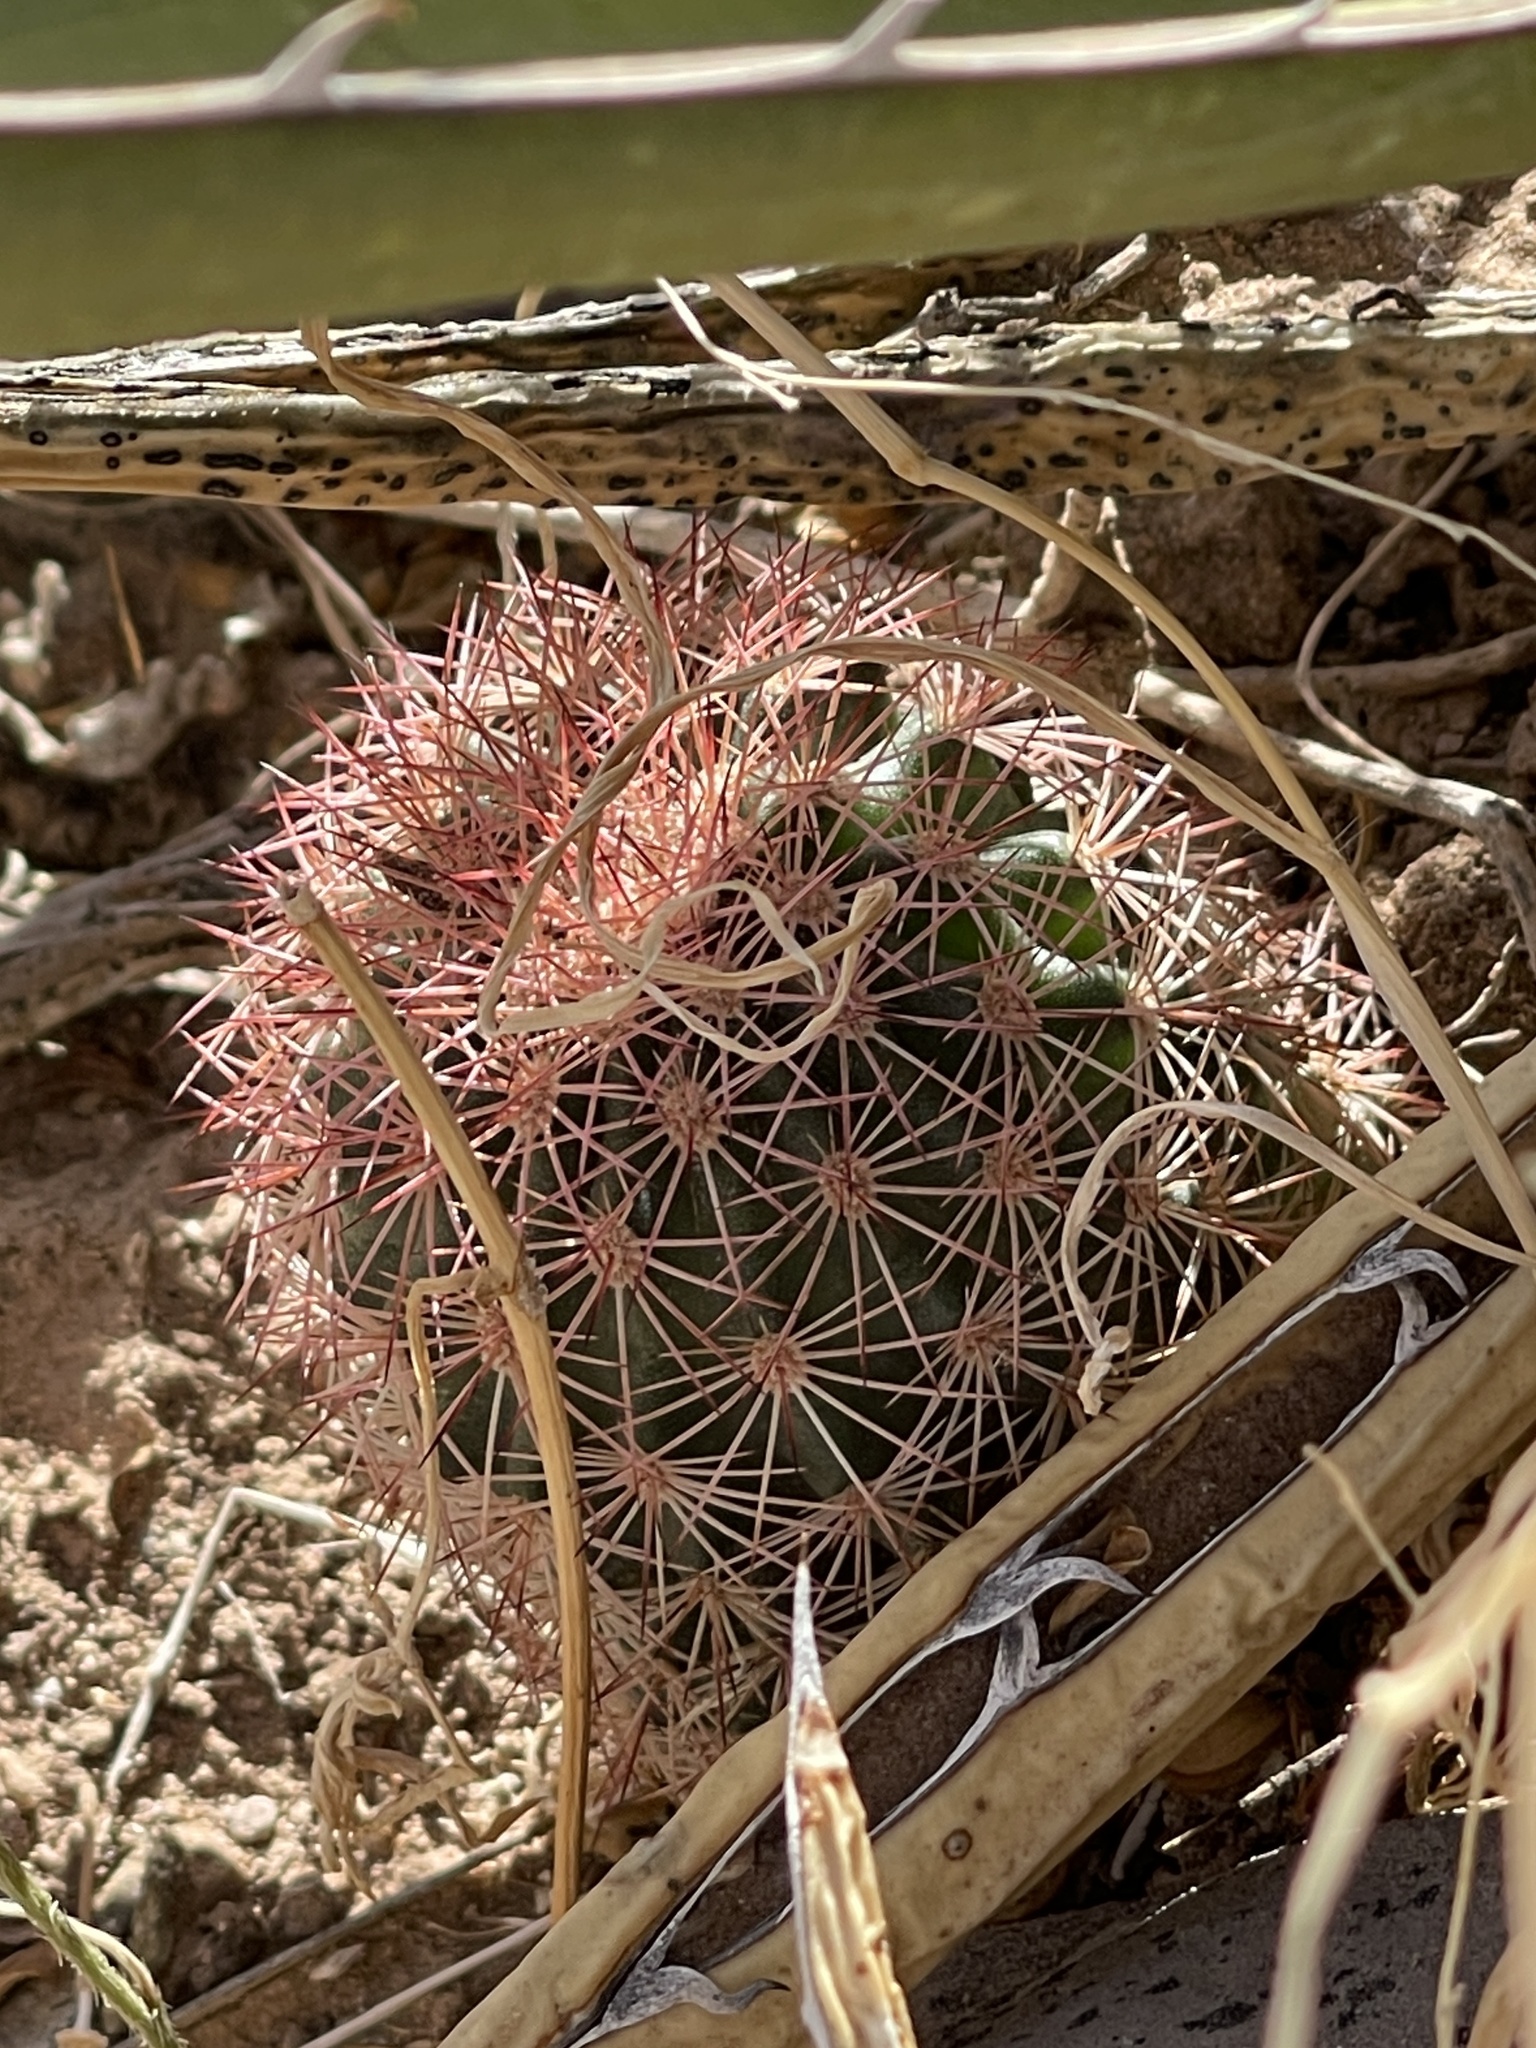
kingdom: Plantae
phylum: Tracheophyta
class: Magnoliopsida
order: Caryophyllales
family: Cactaceae
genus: Echinocereus
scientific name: Echinocereus dasyacanthus
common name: Spiny hedgehog cactus
